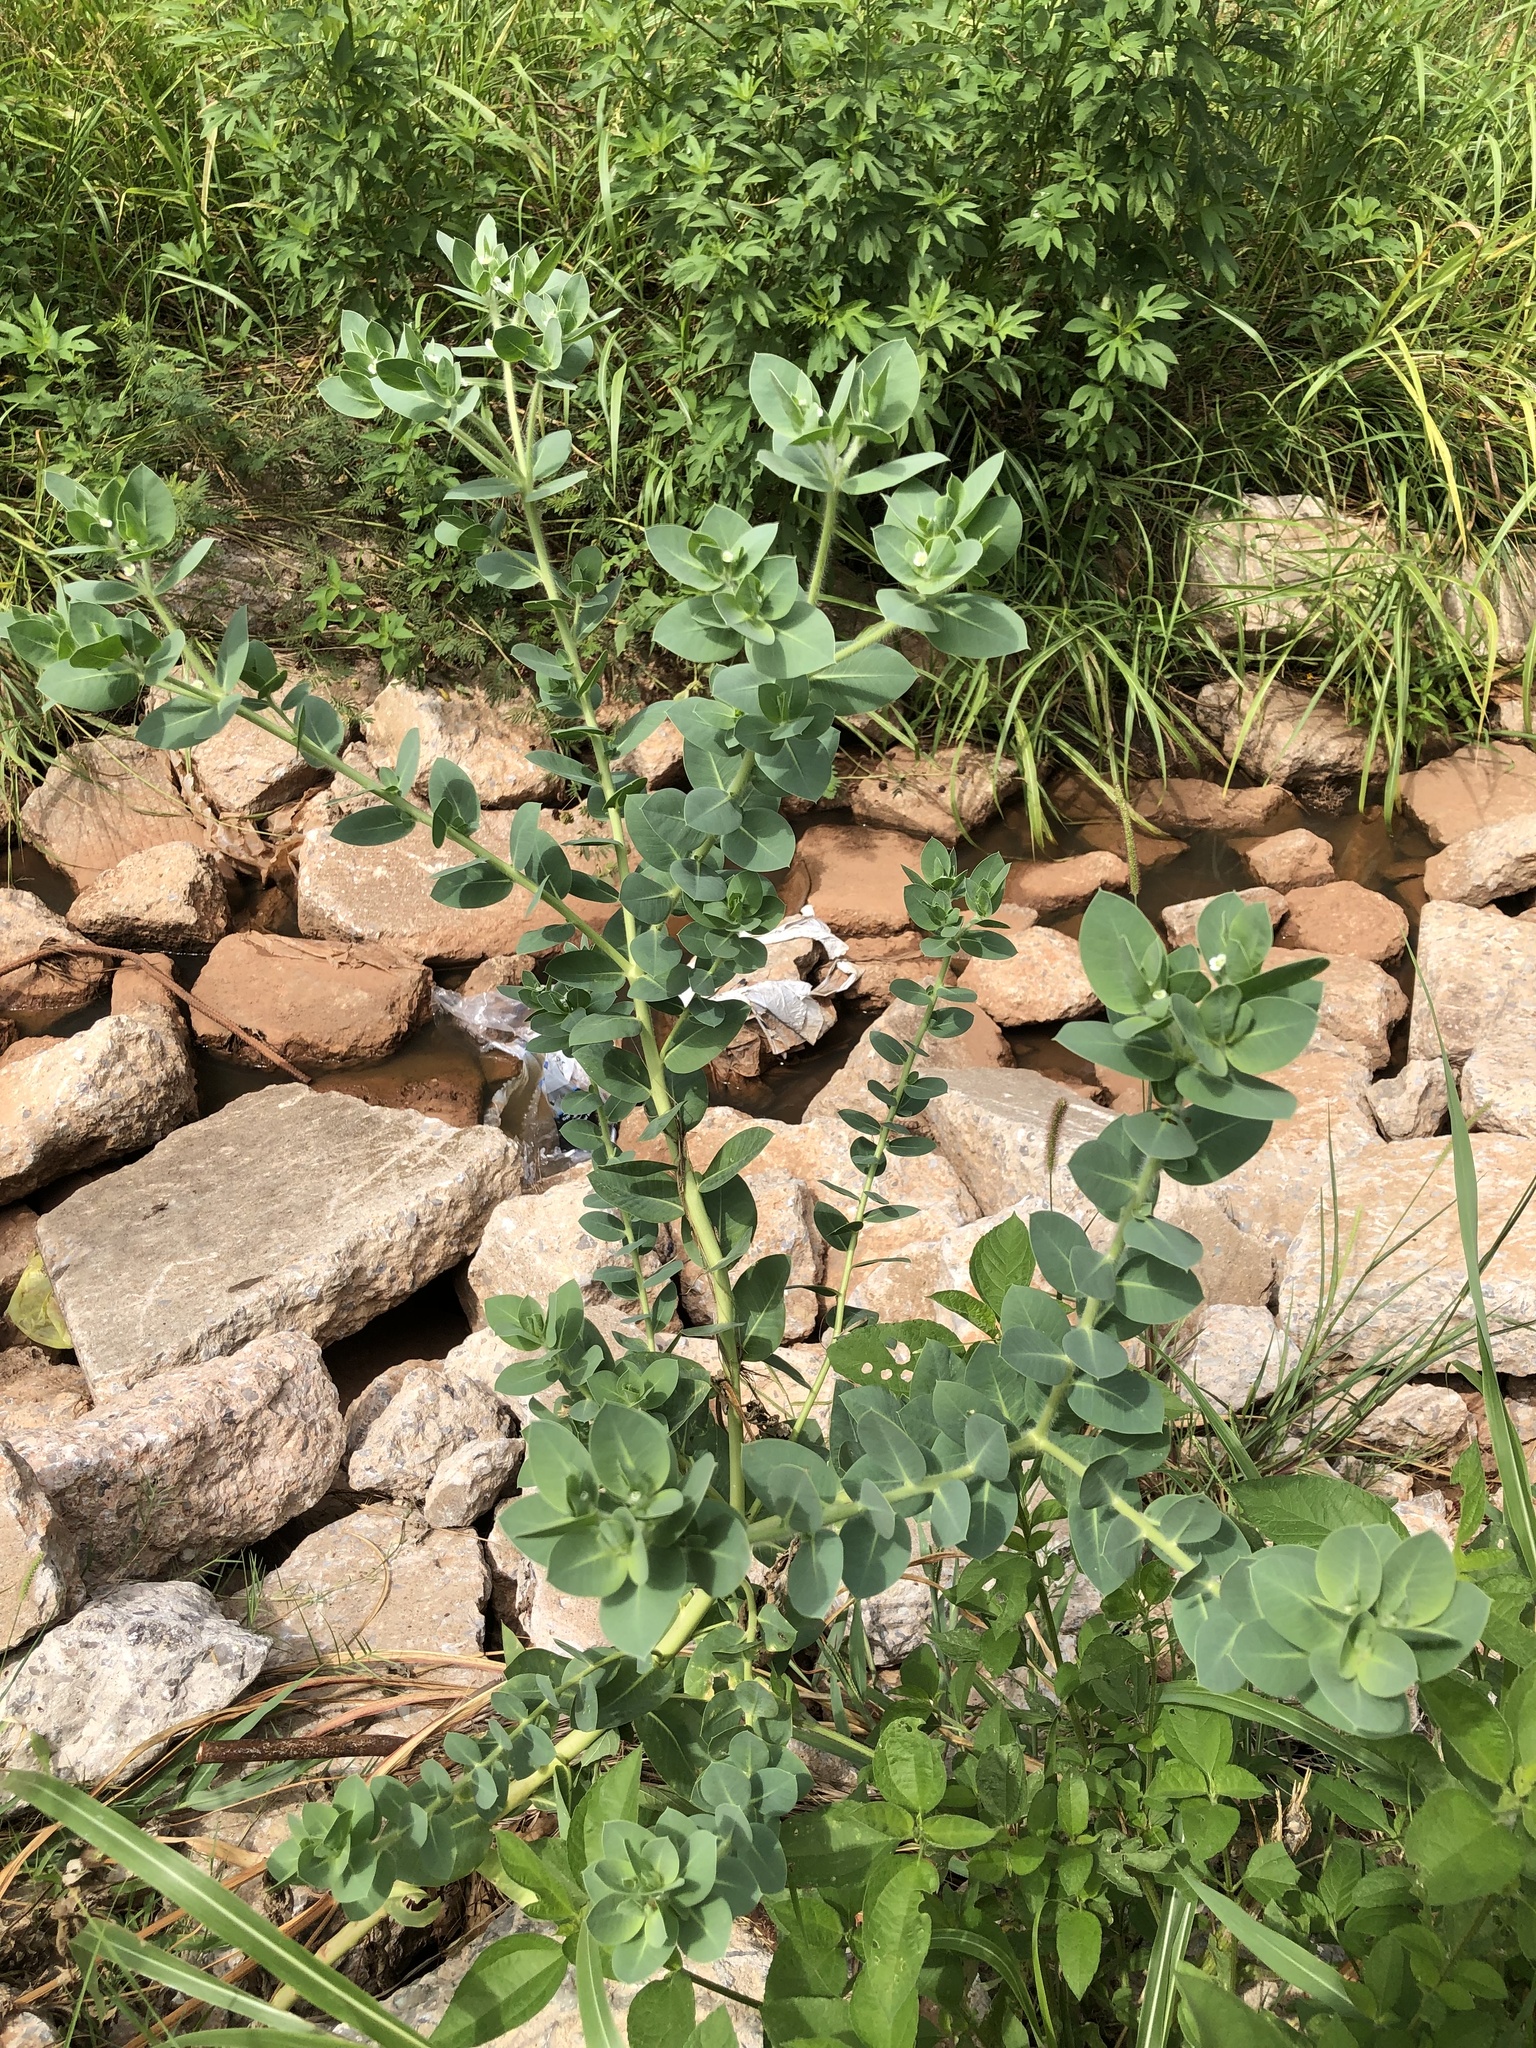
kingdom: Plantae
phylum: Tracheophyta
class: Magnoliopsida
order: Malpighiales
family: Euphorbiaceae
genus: Euphorbia
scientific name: Euphorbia marginata
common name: Ghostweed
